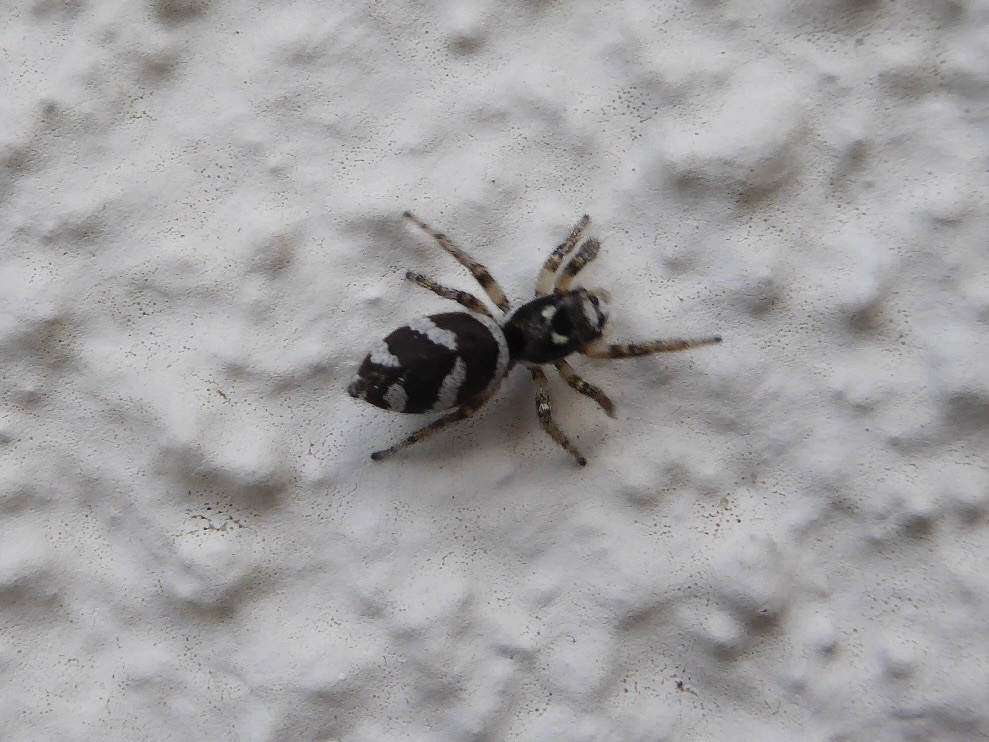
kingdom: Animalia
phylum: Arthropoda
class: Arachnida
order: Araneae
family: Salticidae
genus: Salticus
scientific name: Salticus scenicus
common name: Zebra jumper
